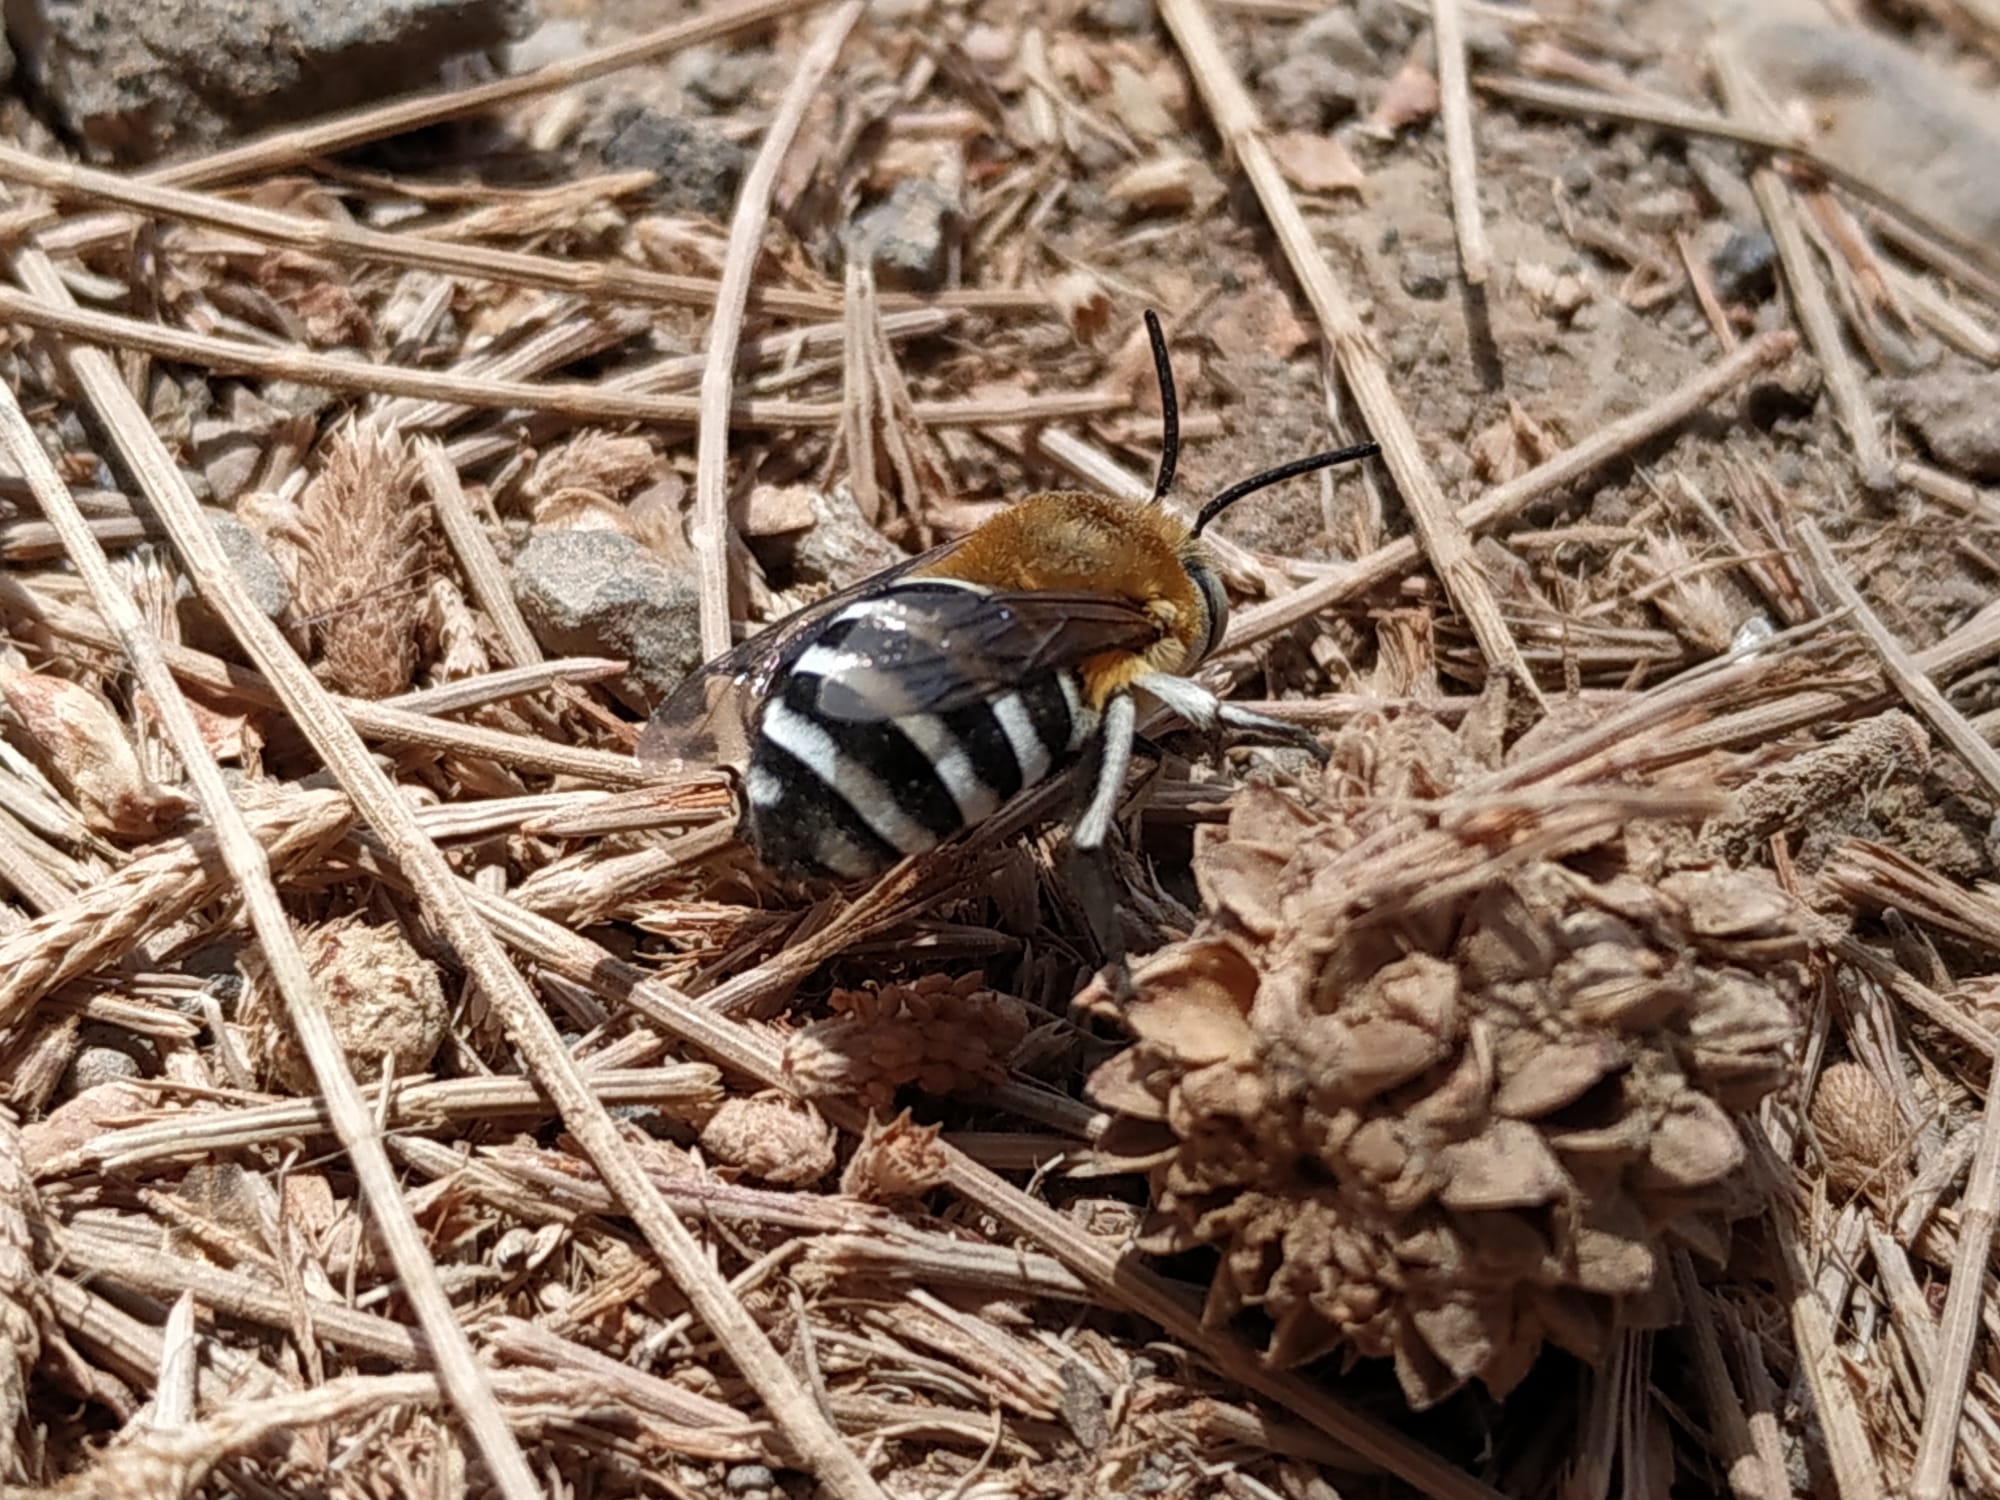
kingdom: Animalia
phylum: Arthropoda
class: Insecta
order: Hymenoptera
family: Apidae
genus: Amegilla
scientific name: Amegilla quadrifasciata
